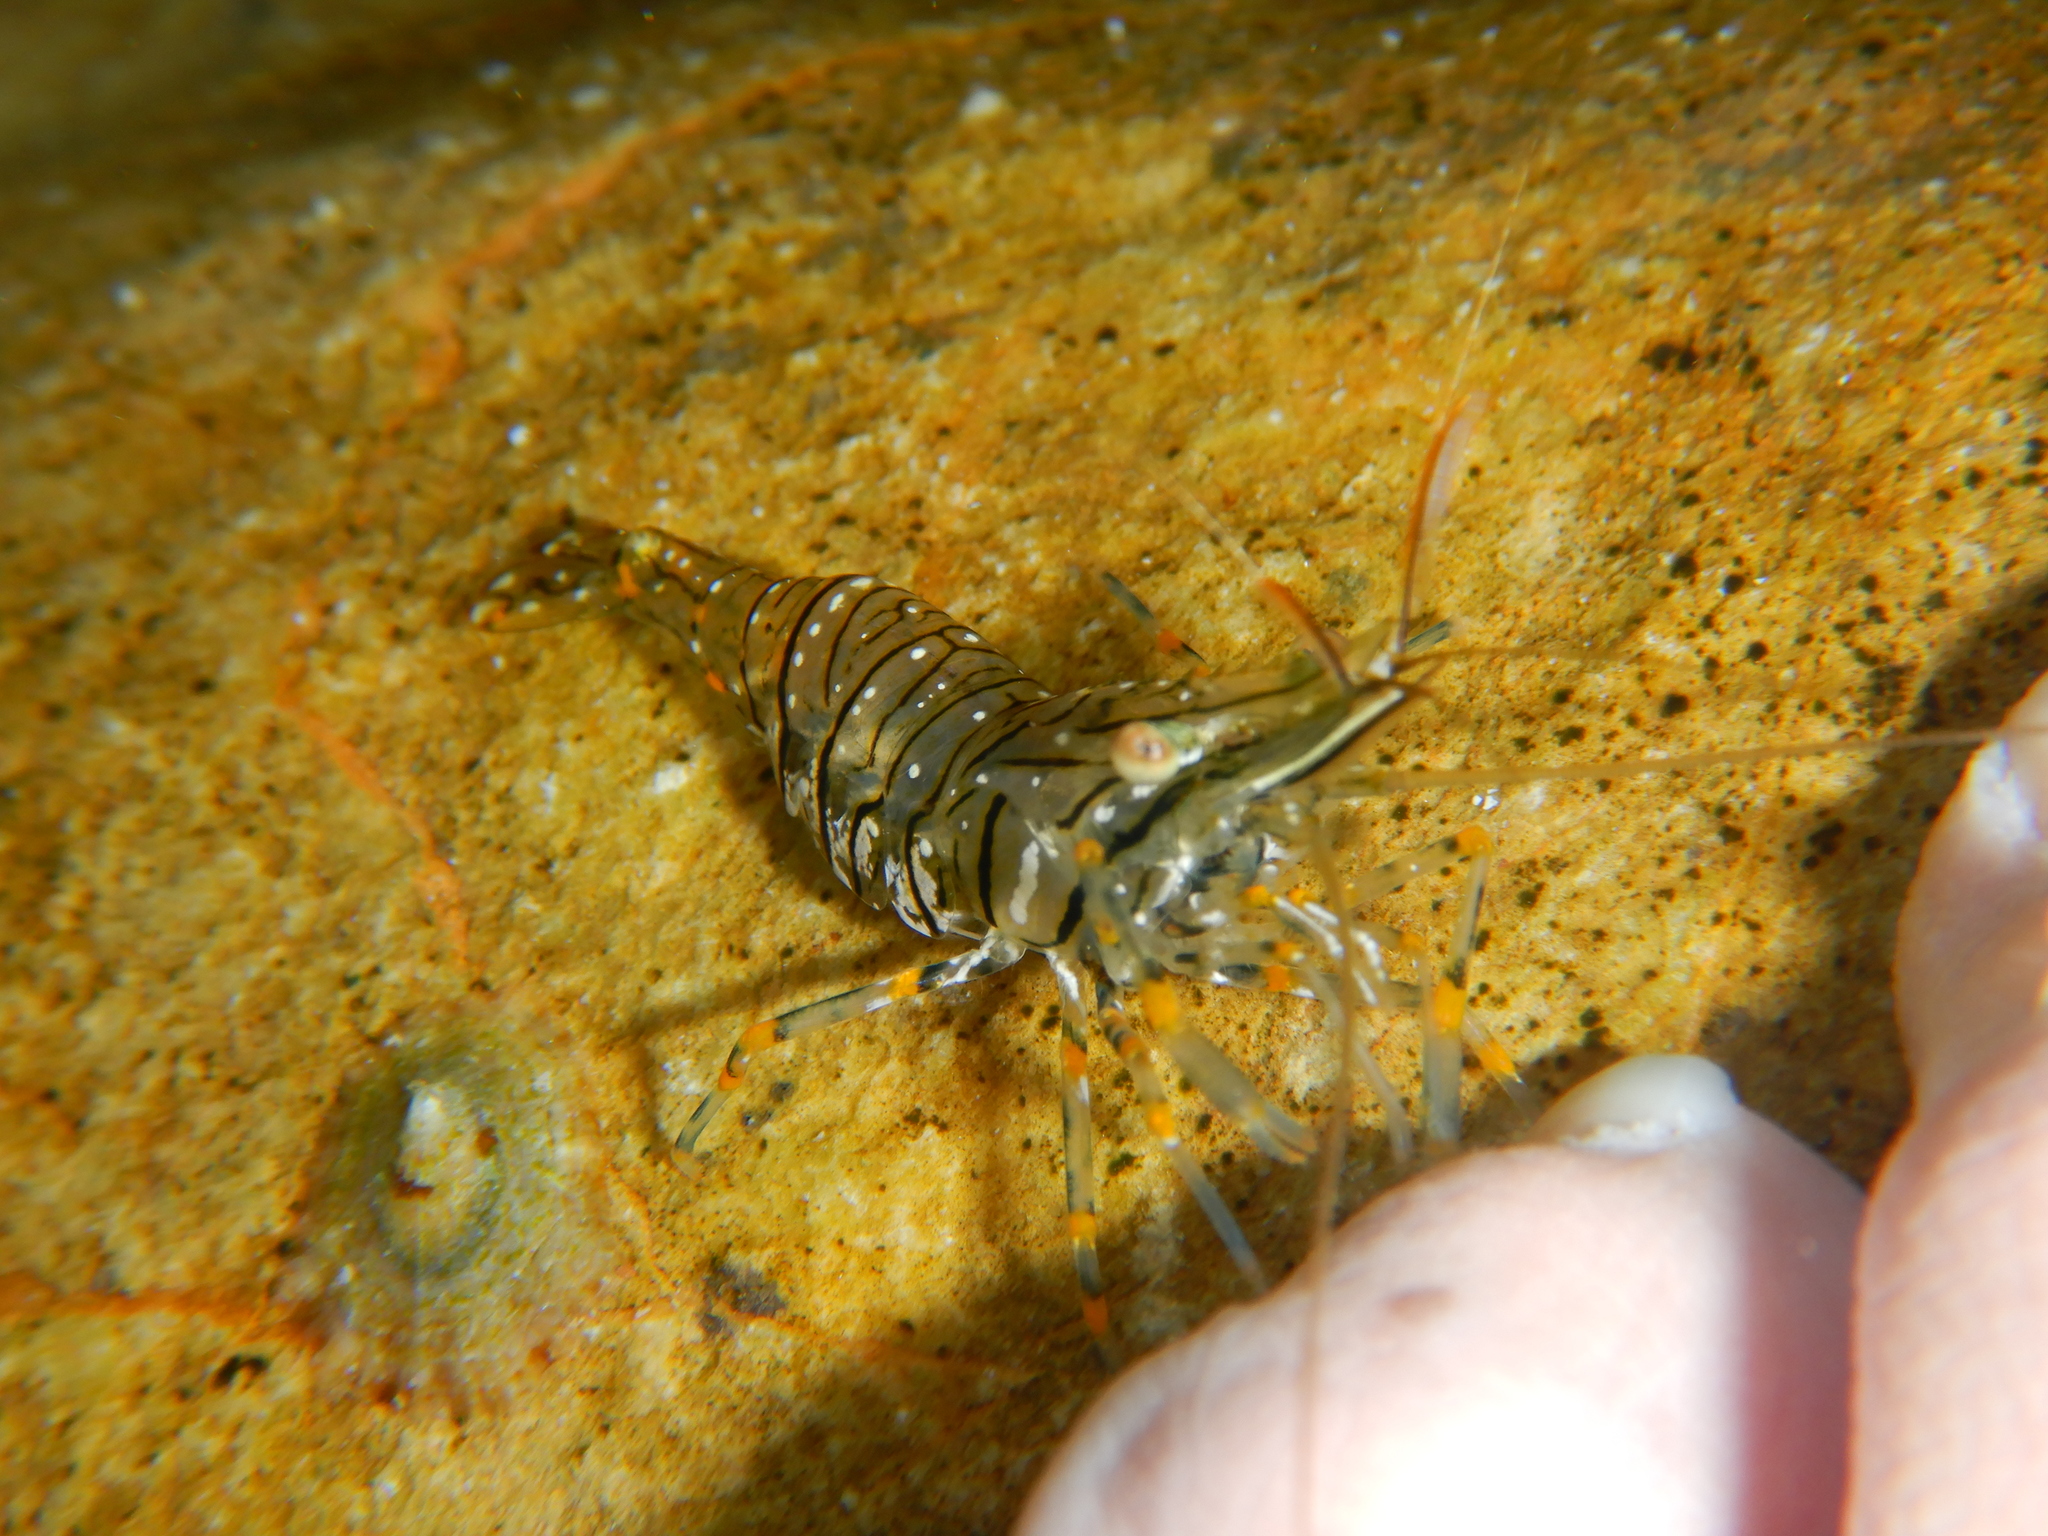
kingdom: Animalia
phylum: Arthropoda
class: Malacostraca
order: Decapoda
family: Palaemonidae
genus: Palaemon
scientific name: Palaemon elegans
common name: Grass prawm
